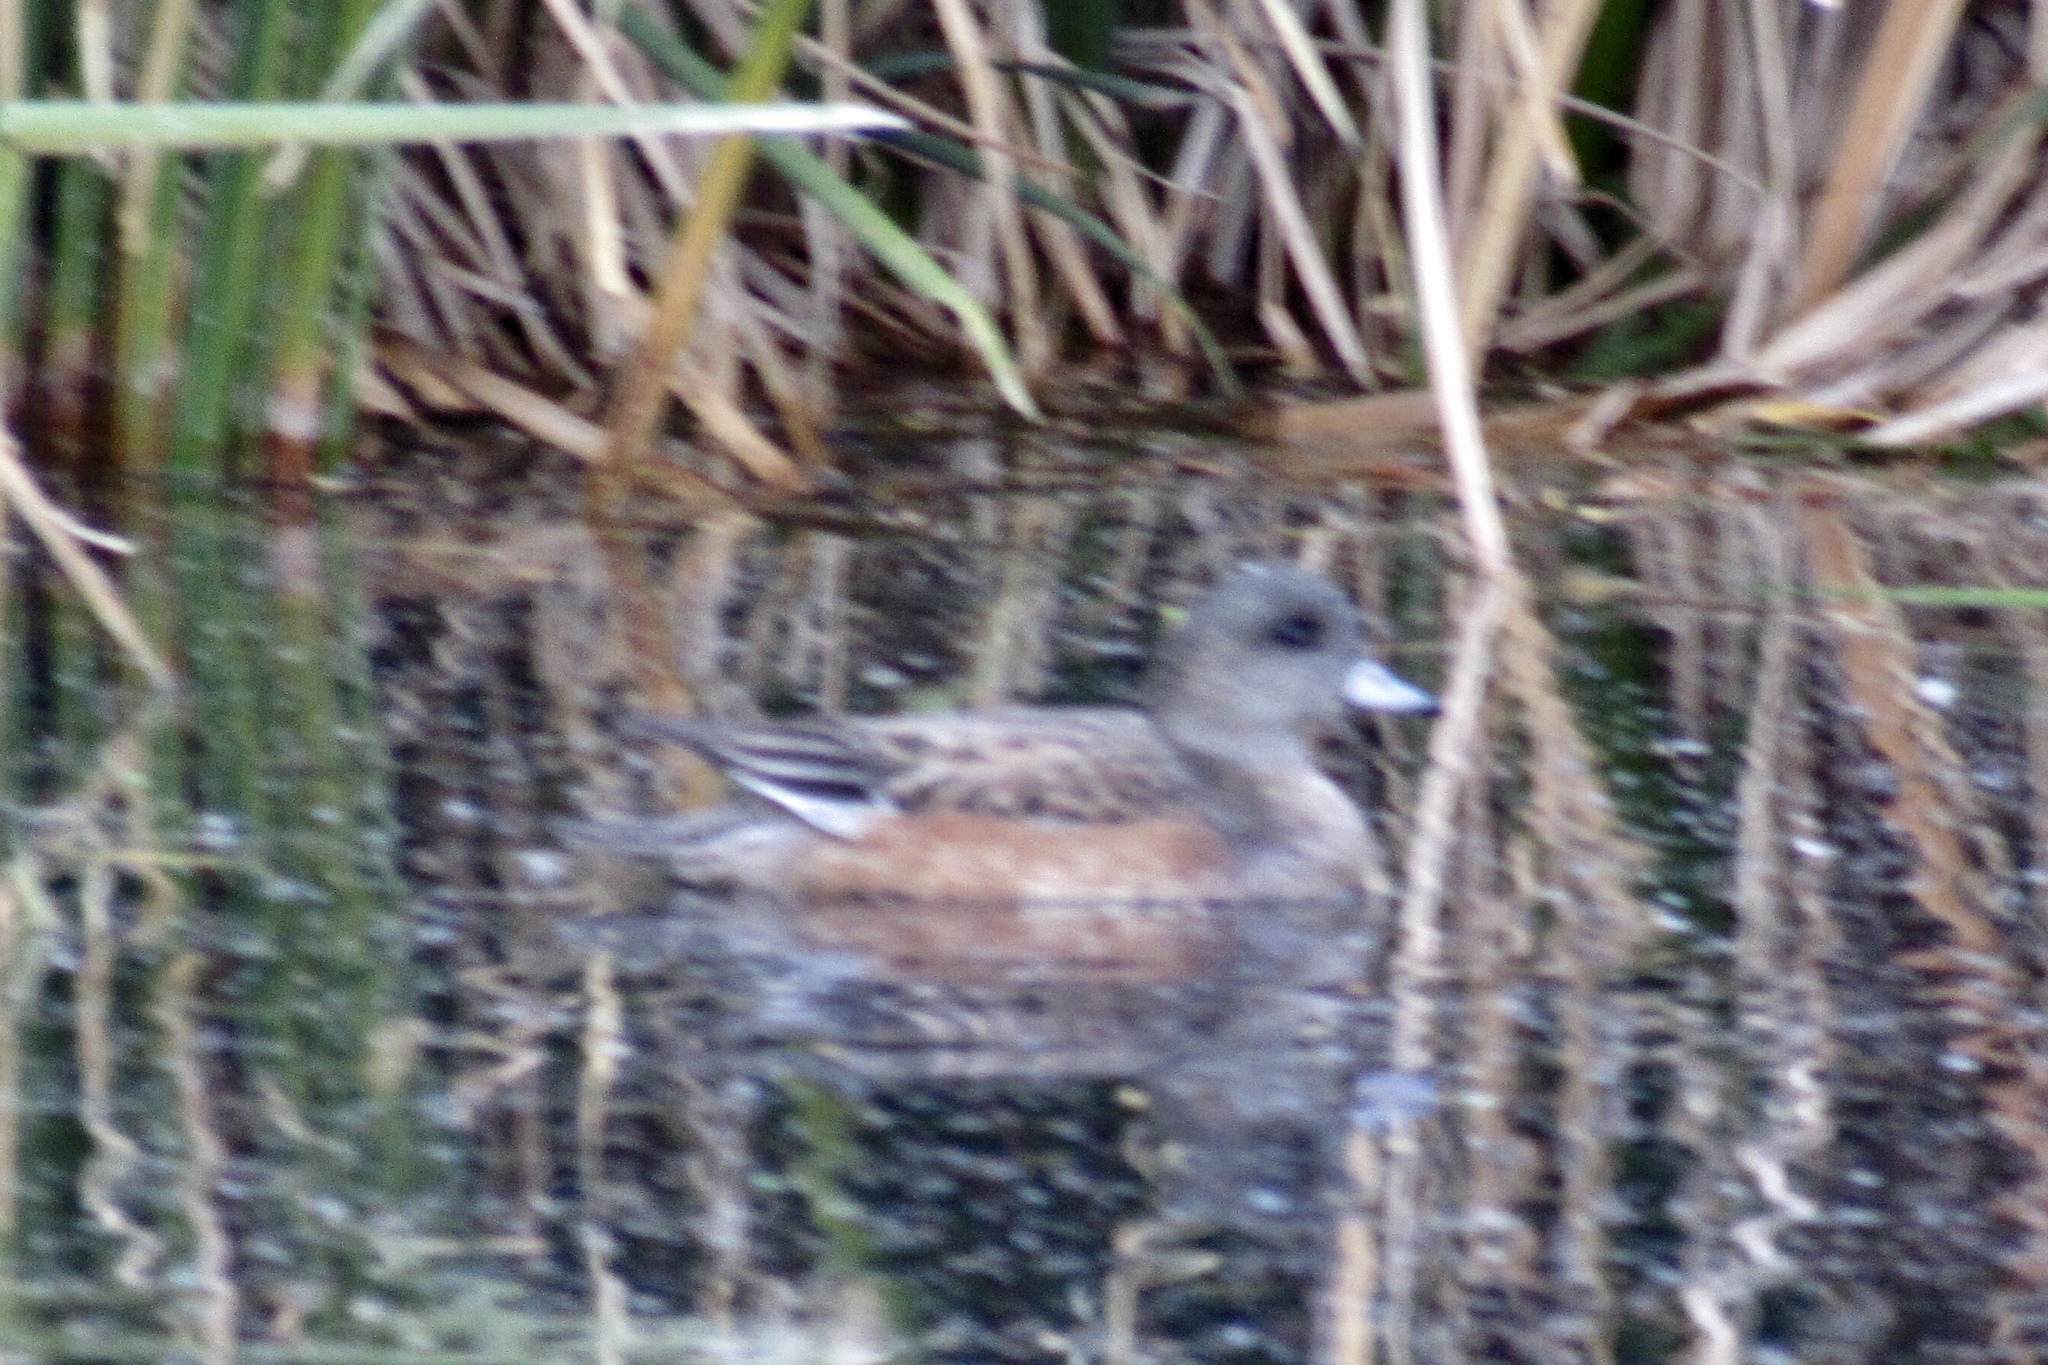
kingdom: Animalia
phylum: Chordata
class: Aves
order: Anseriformes
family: Anatidae
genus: Mareca
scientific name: Mareca americana
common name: American wigeon
